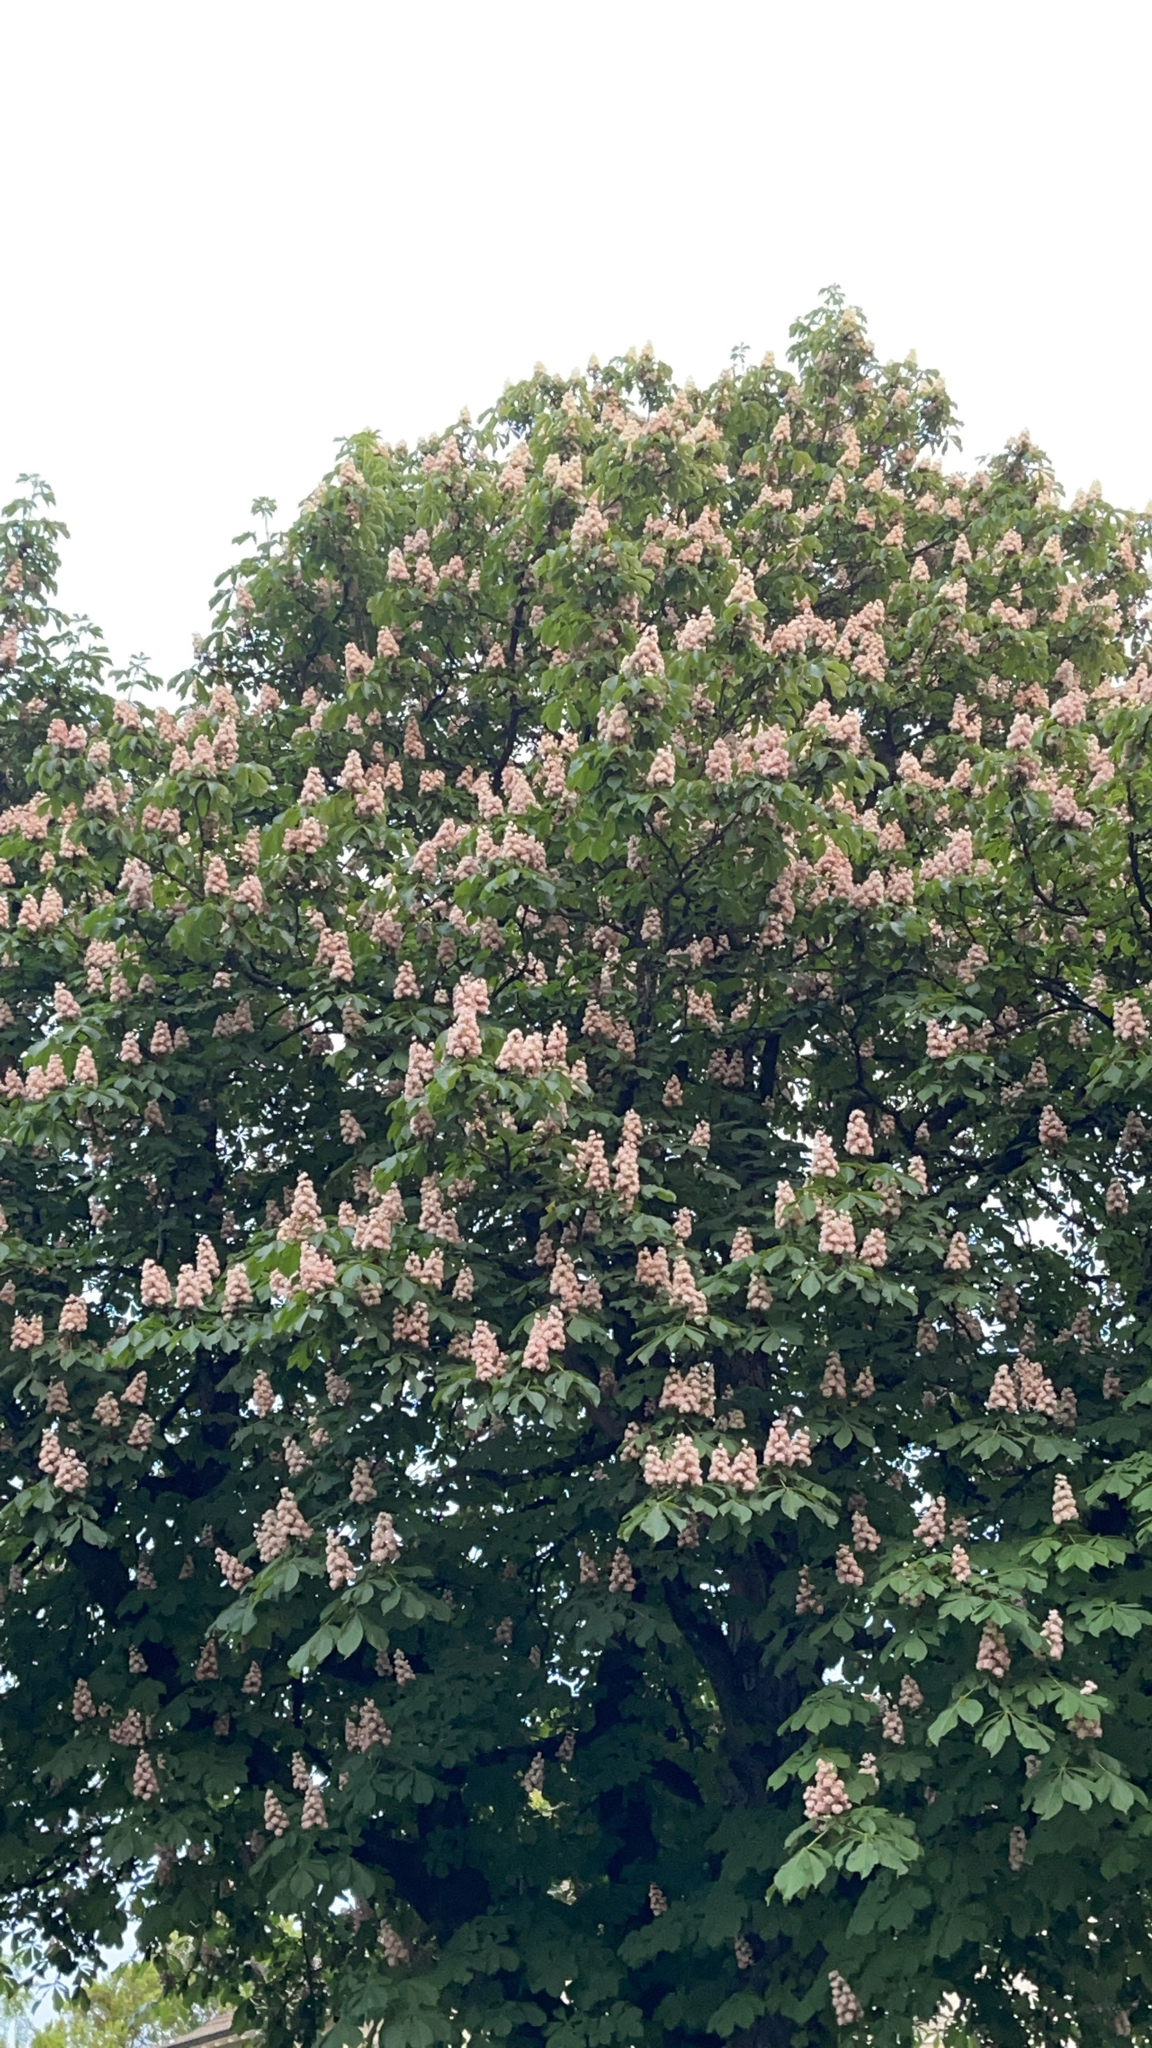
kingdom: Plantae
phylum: Tracheophyta
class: Magnoliopsida
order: Sapindales
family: Sapindaceae
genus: Aesculus
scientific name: Aesculus hippocastanum
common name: Horse-chestnut
